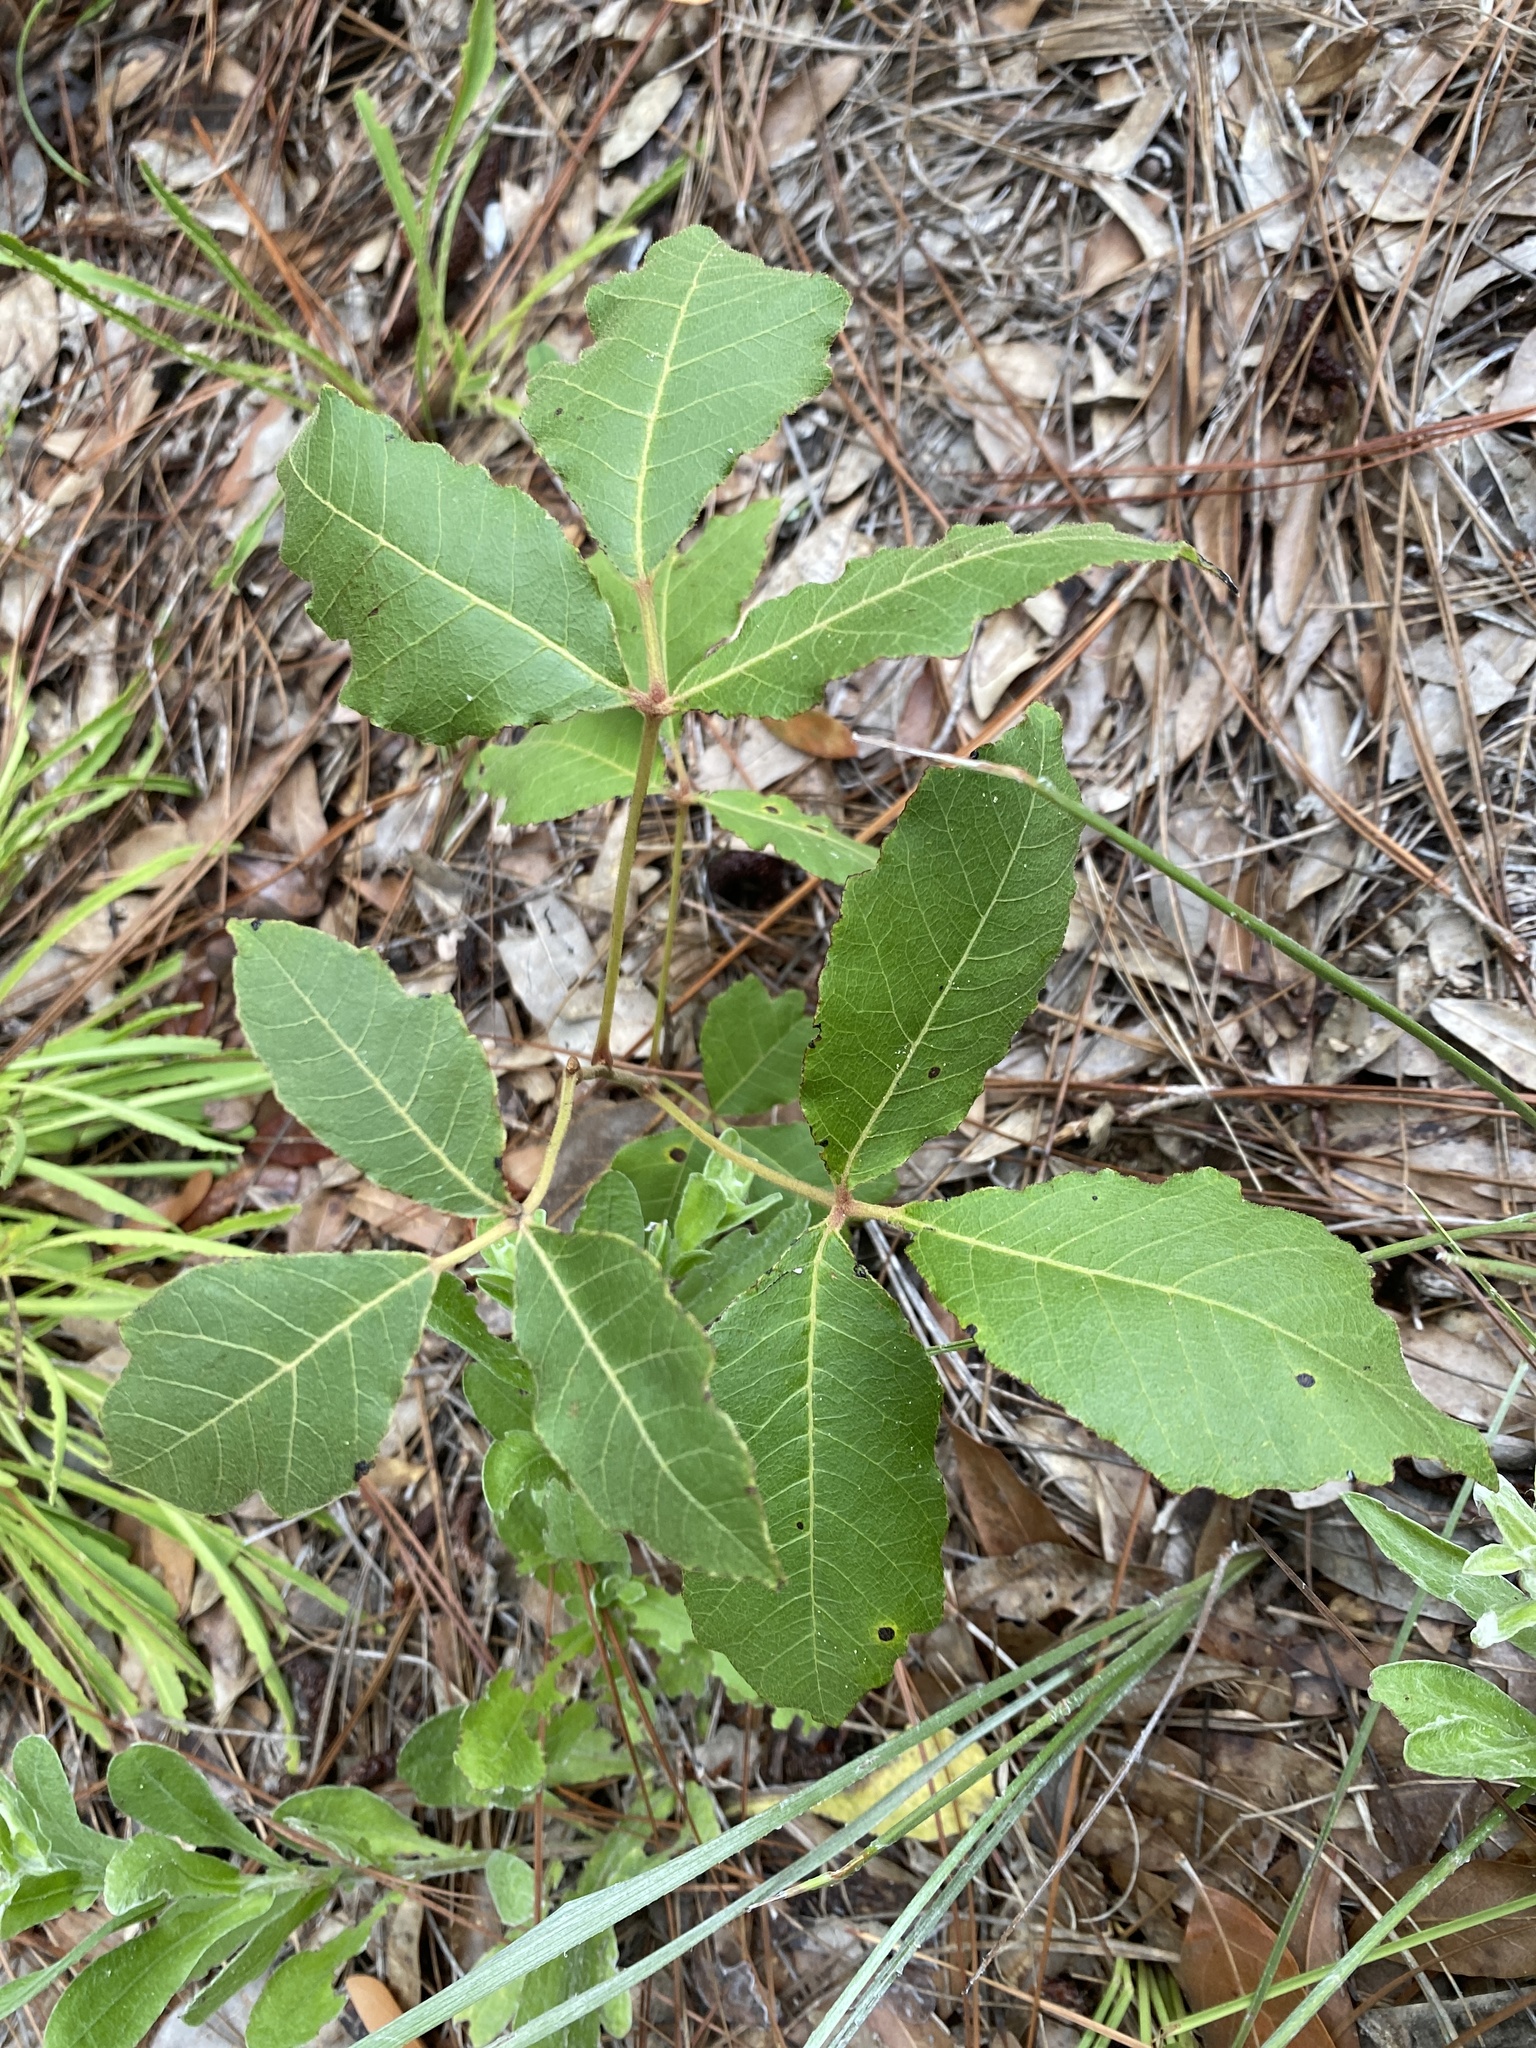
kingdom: Plantae
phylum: Tracheophyta
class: Magnoliopsida
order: Sapindales
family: Anacardiaceae
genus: Toxicodendron
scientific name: Toxicodendron pubescens
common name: Eastern poison-oak
